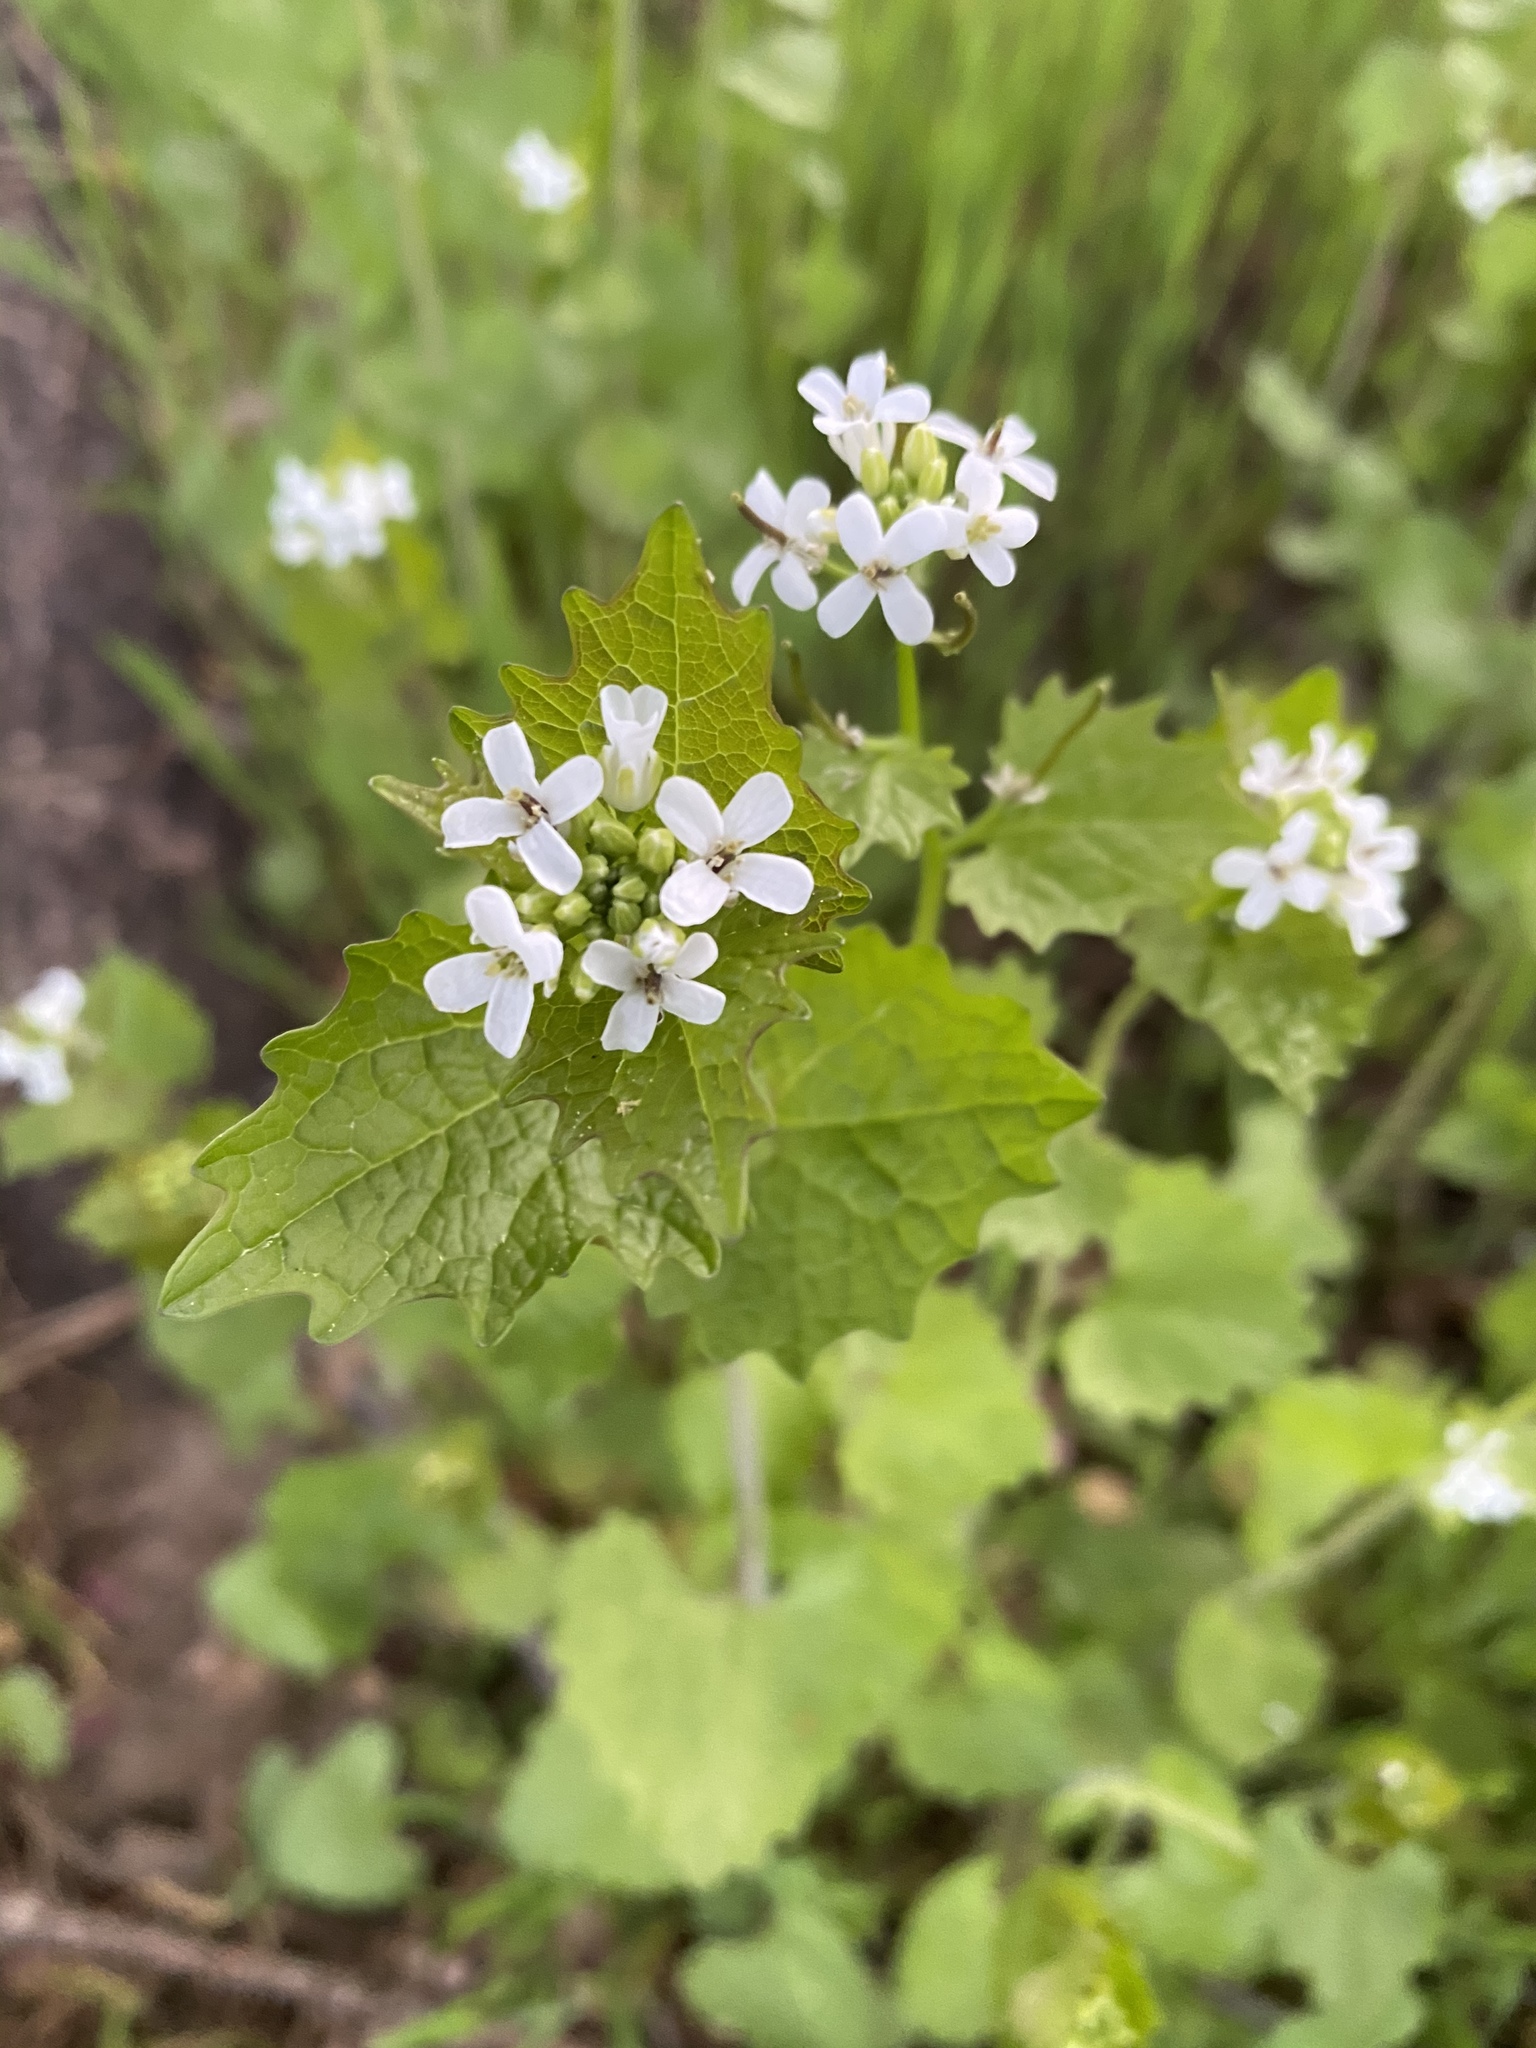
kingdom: Plantae
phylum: Tracheophyta
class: Magnoliopsida
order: Brassicales
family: Brassicaceae
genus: Alliaria
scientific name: Alliaria petiolata
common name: Garlic mustard
